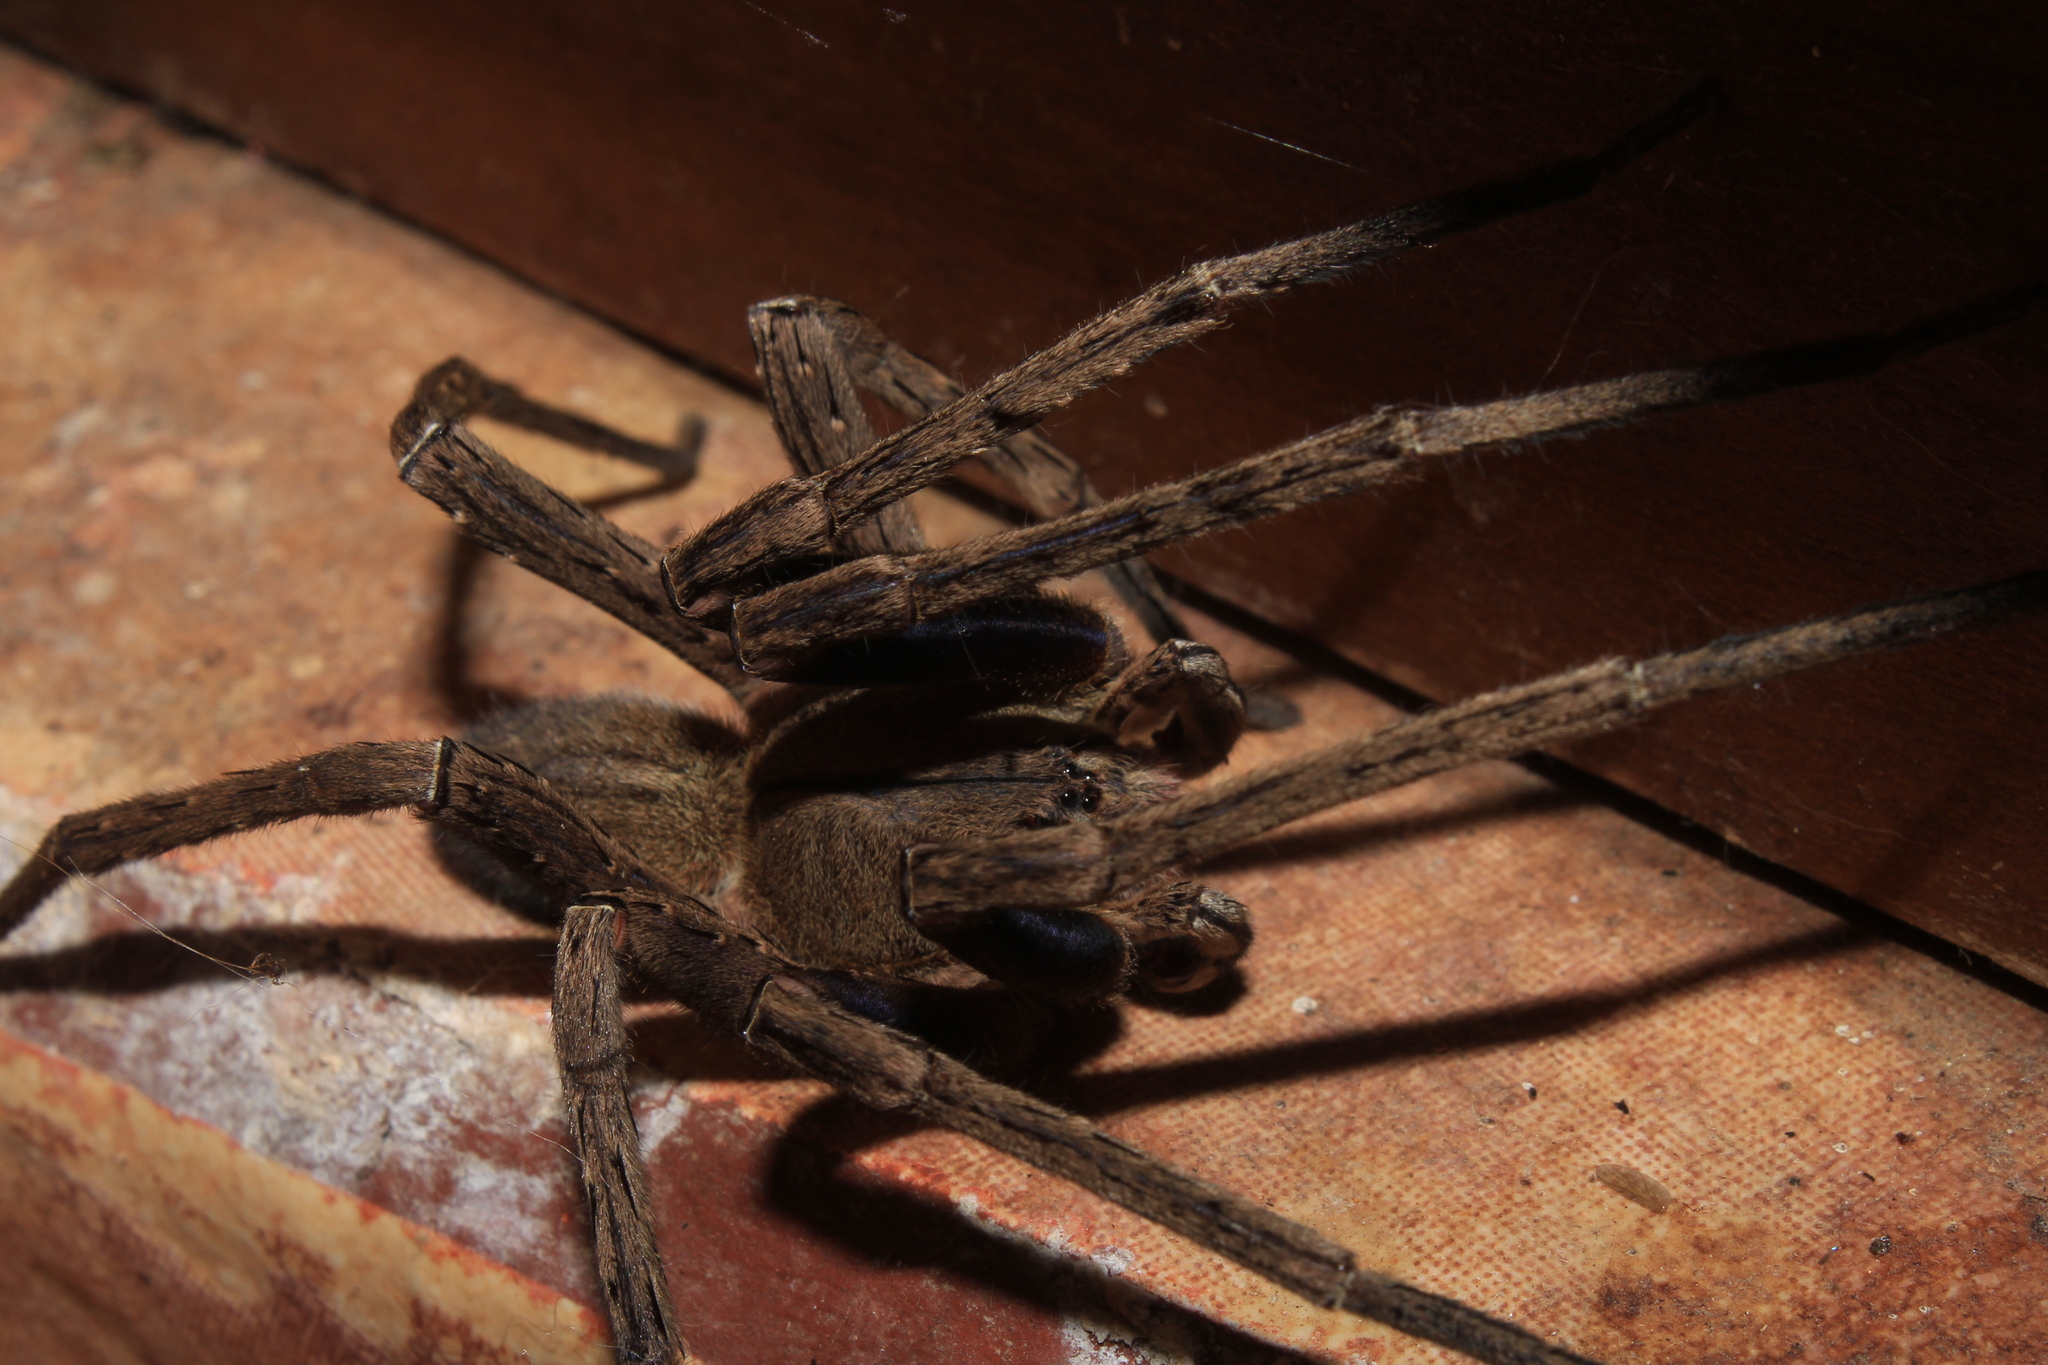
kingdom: Animalia
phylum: Arthropoda
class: Arachnida
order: Araneae
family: Ctenidae
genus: Phoneutria
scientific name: Phoneutria depilata
